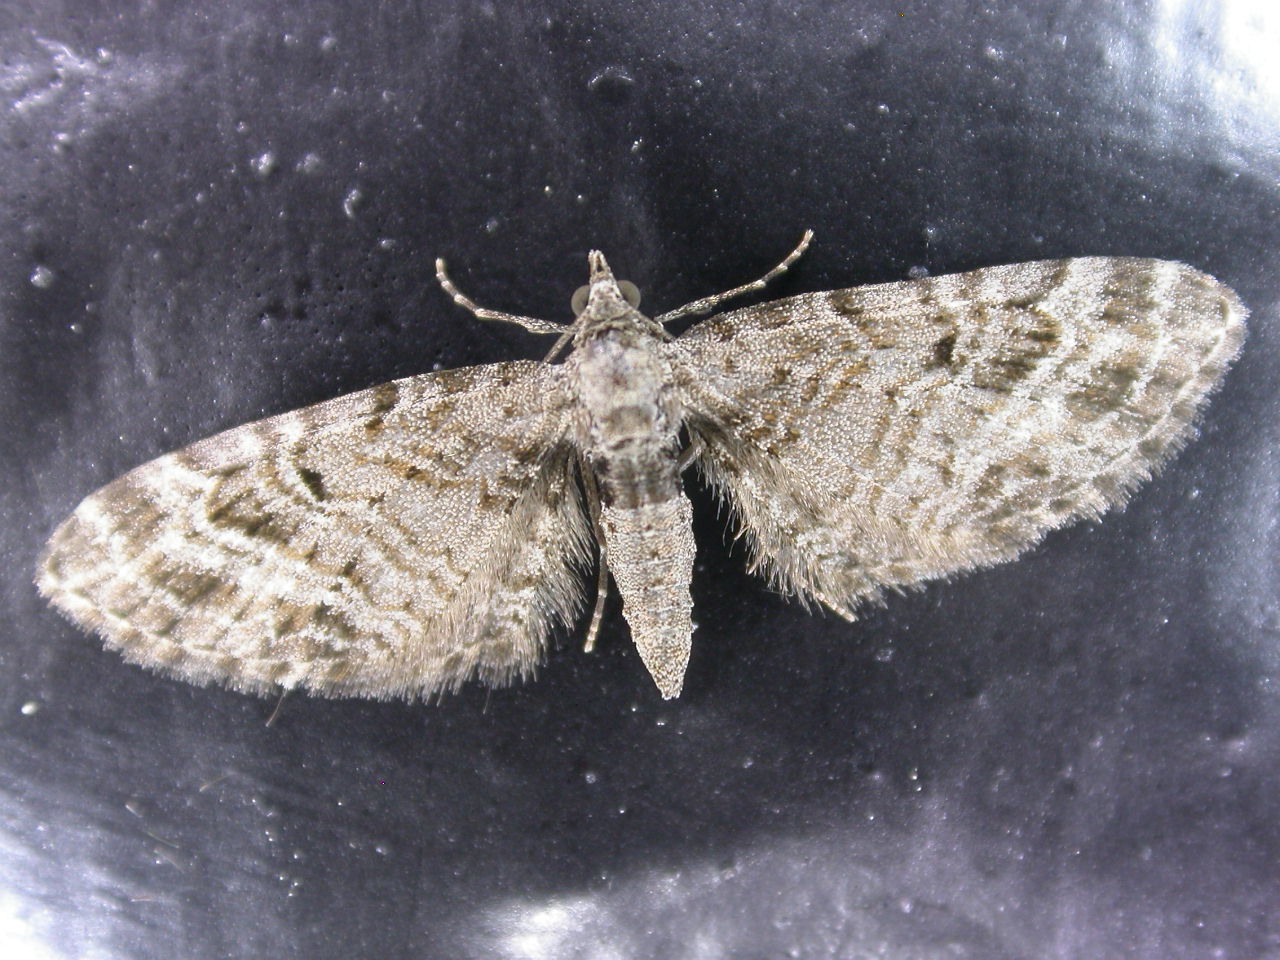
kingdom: Animalia
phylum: Arthropoda
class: Insecta
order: Lepidoptera
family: Geometridae
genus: Eupithecia
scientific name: Eupithecia exiguata
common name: Mottled pug
